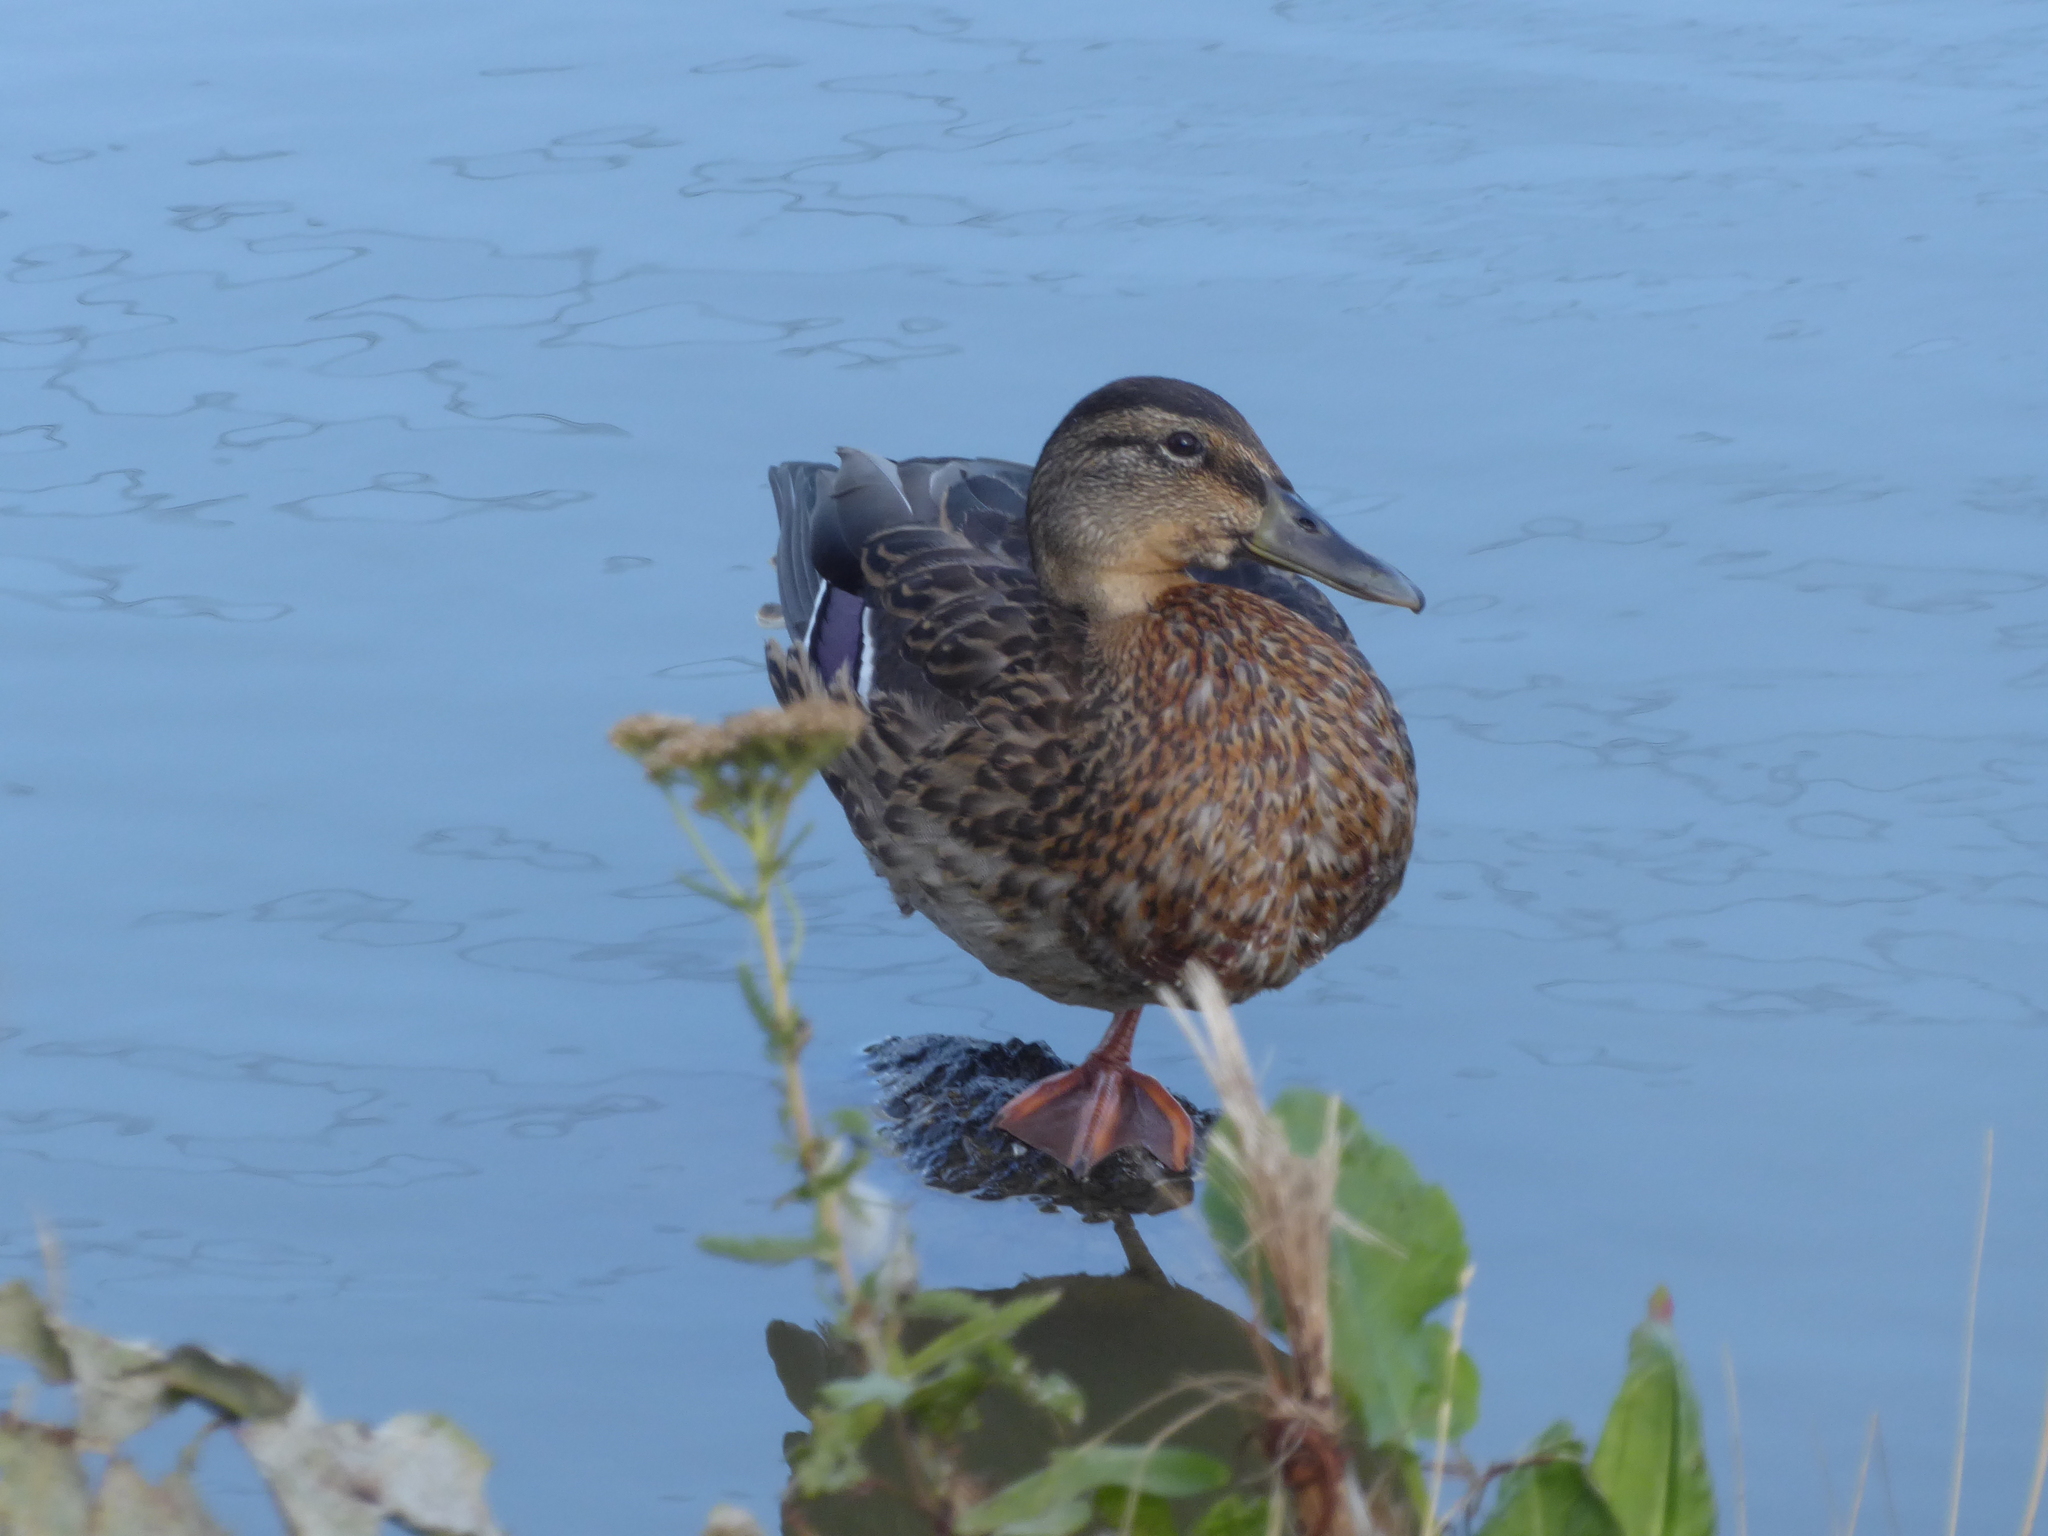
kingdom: Animalia
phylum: Chordata
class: Aves
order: Anseriformes
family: Anatidae
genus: Anas
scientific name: Anas platyrhynchos
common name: Mallard
